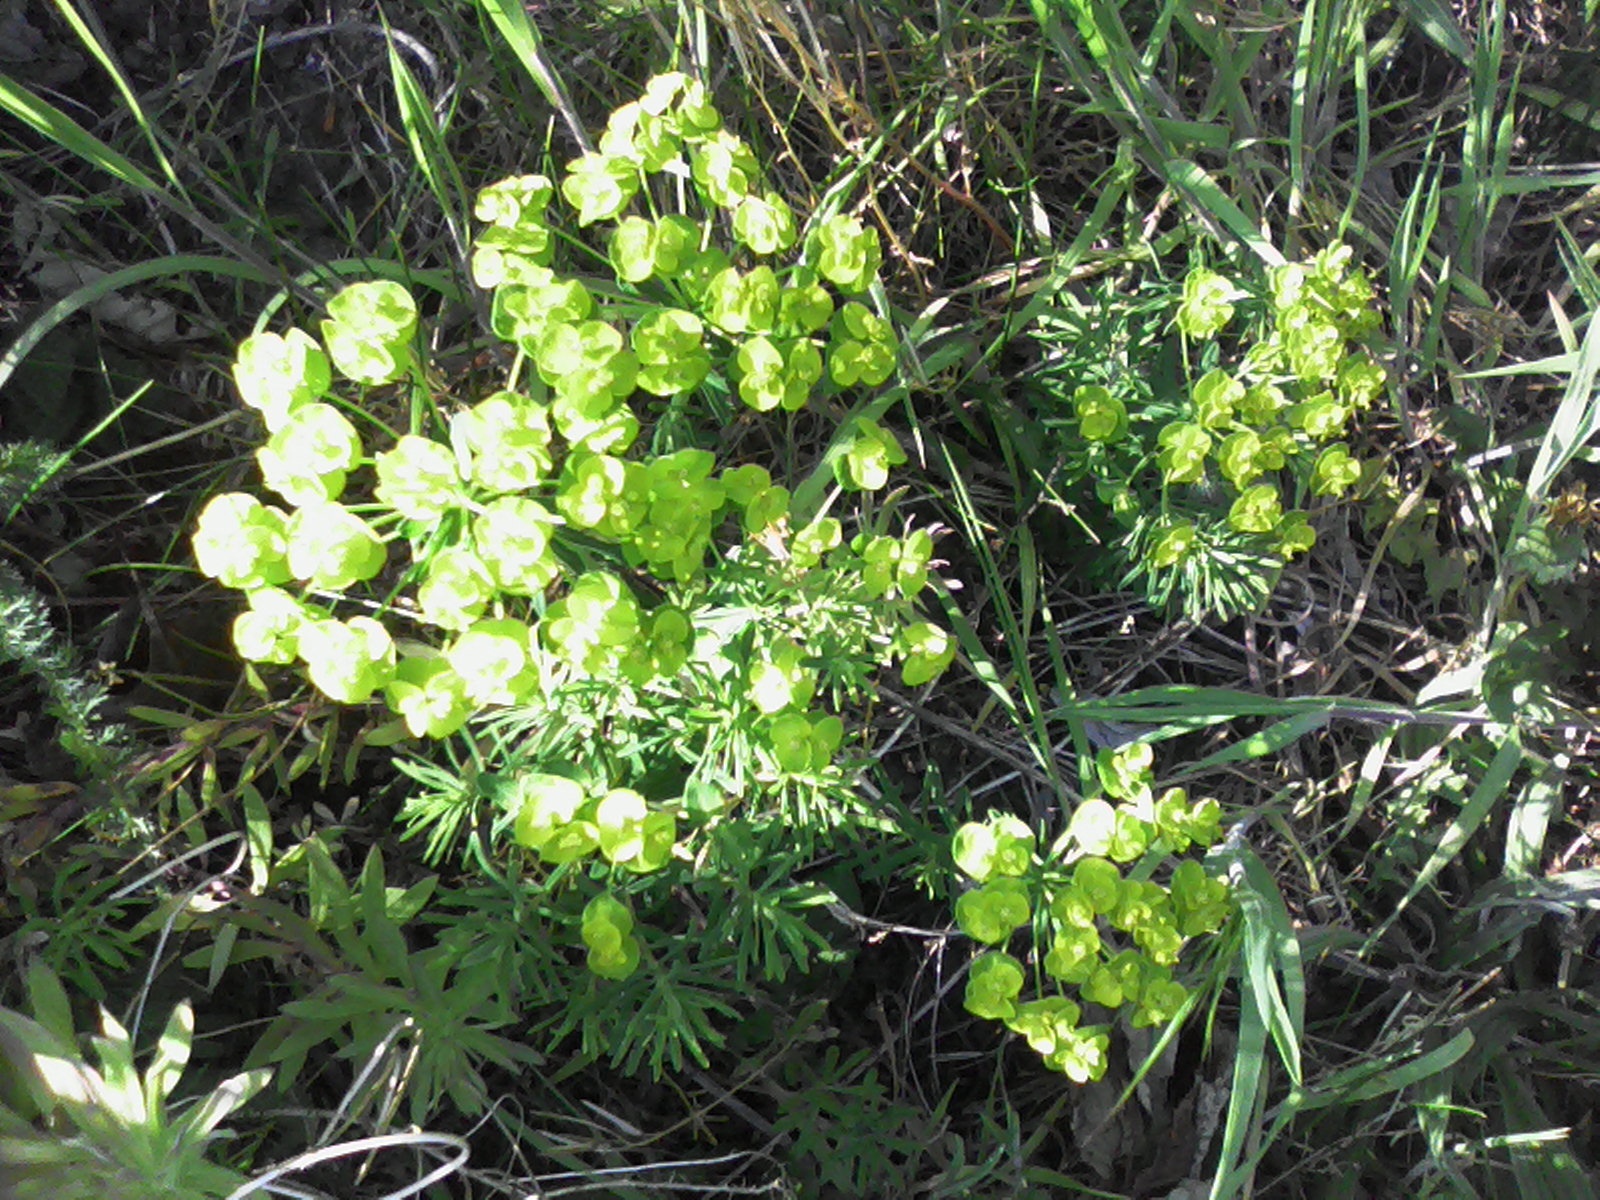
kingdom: Plantae
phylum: Tracheophyta
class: Magnoliopsida
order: Malpighiales
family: Euphorbiaceae
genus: Euphorbia
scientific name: Euphorbia cyparissias
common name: Cypress spurge
